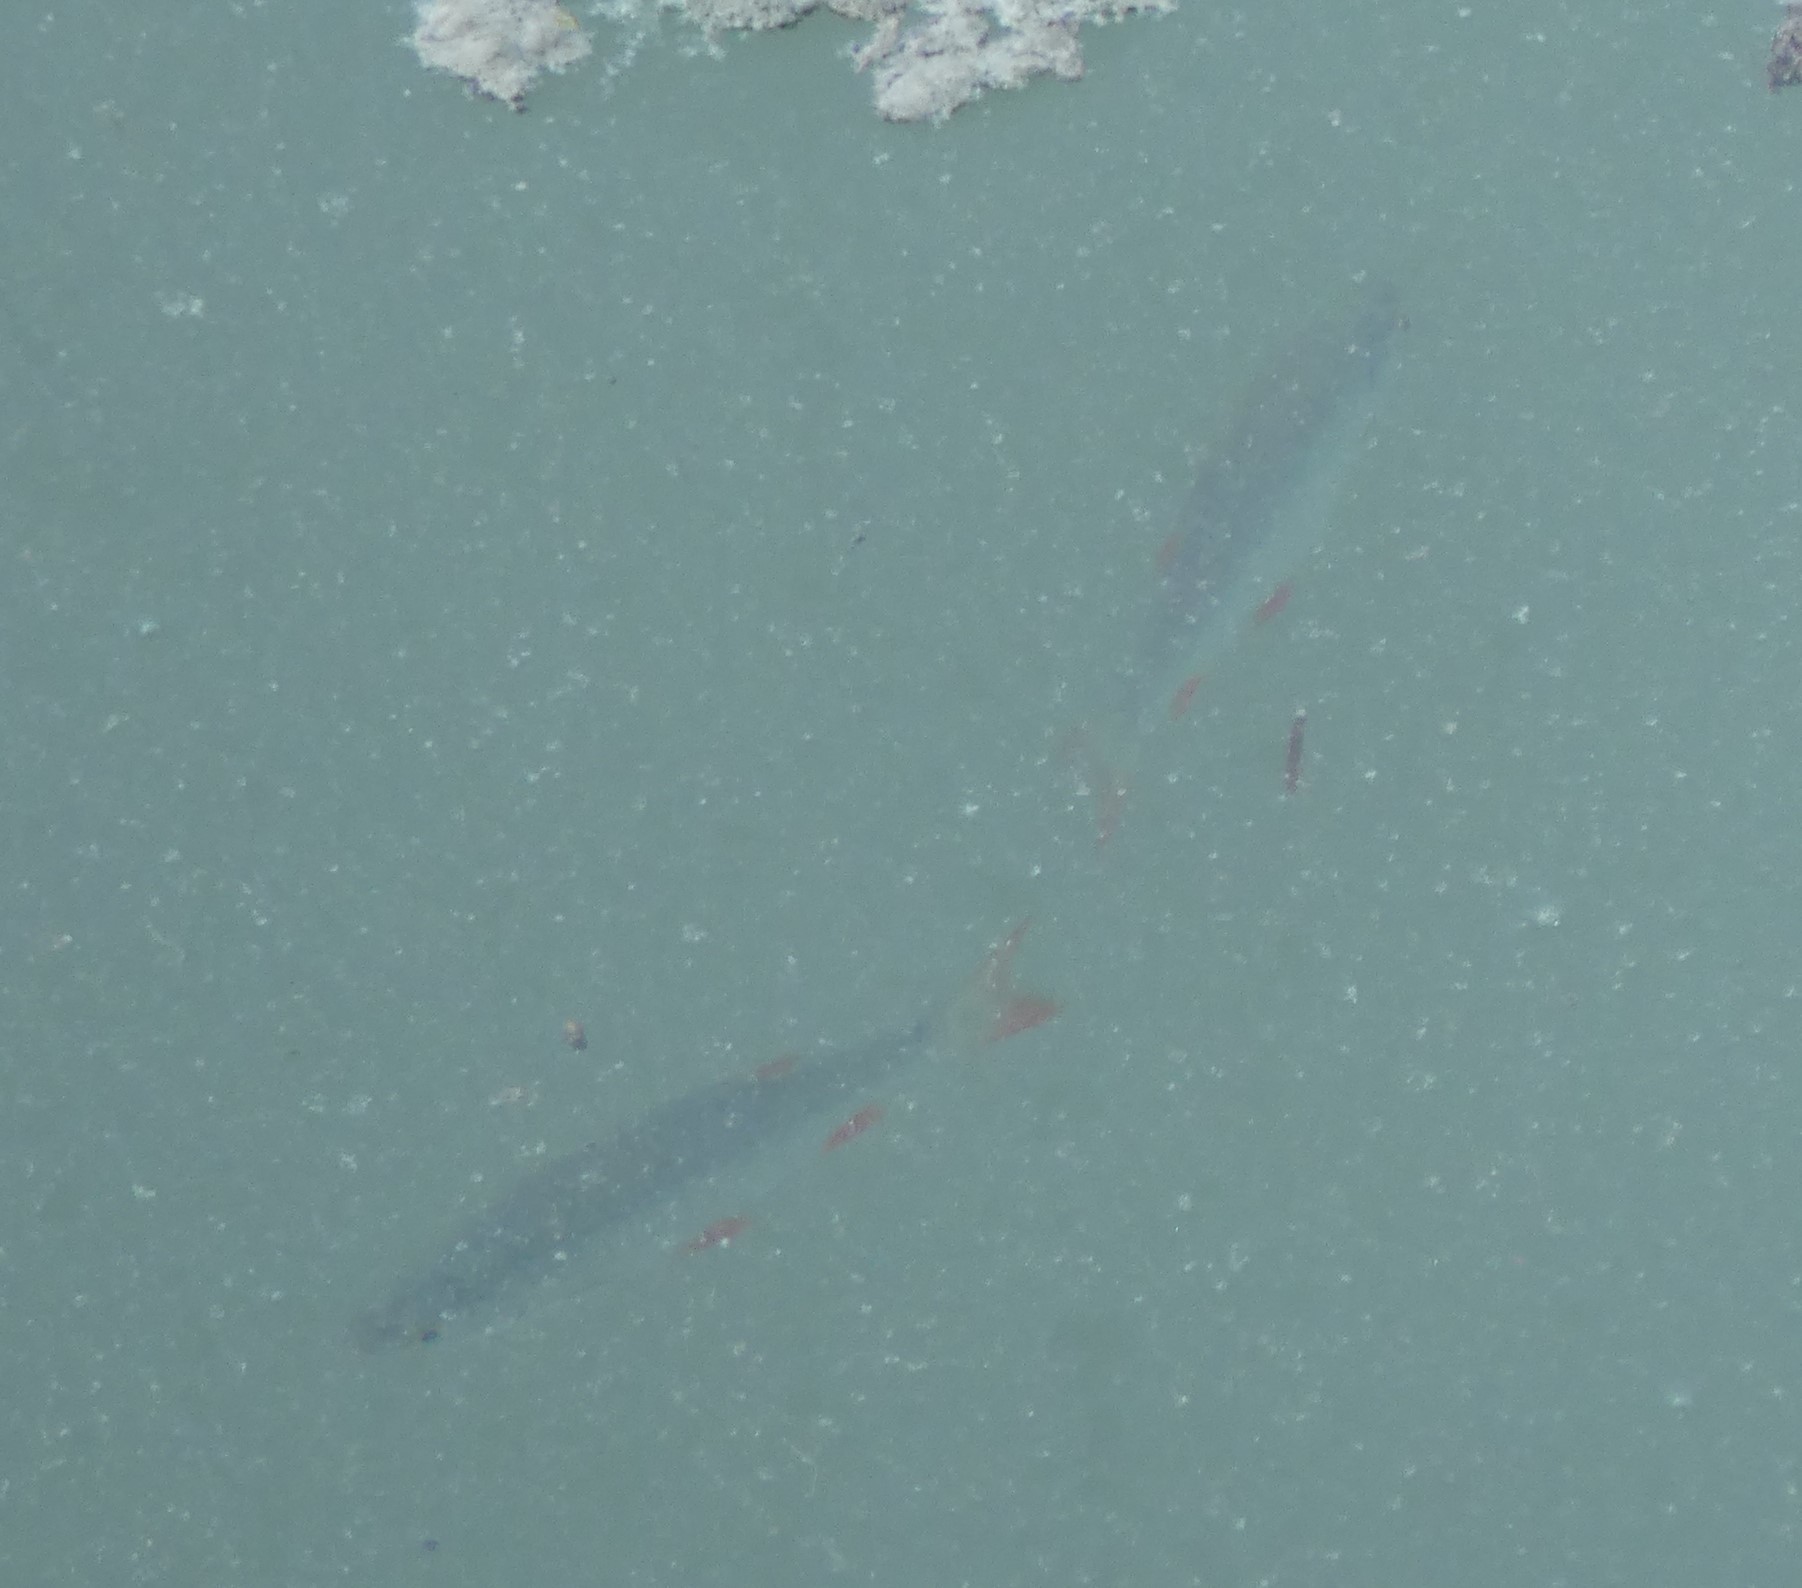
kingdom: Animalia
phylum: Chordata
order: Cypriniformes
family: Cyprinidae
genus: Scardinius
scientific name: Scardinius erythrophthalmus
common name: Rudd
